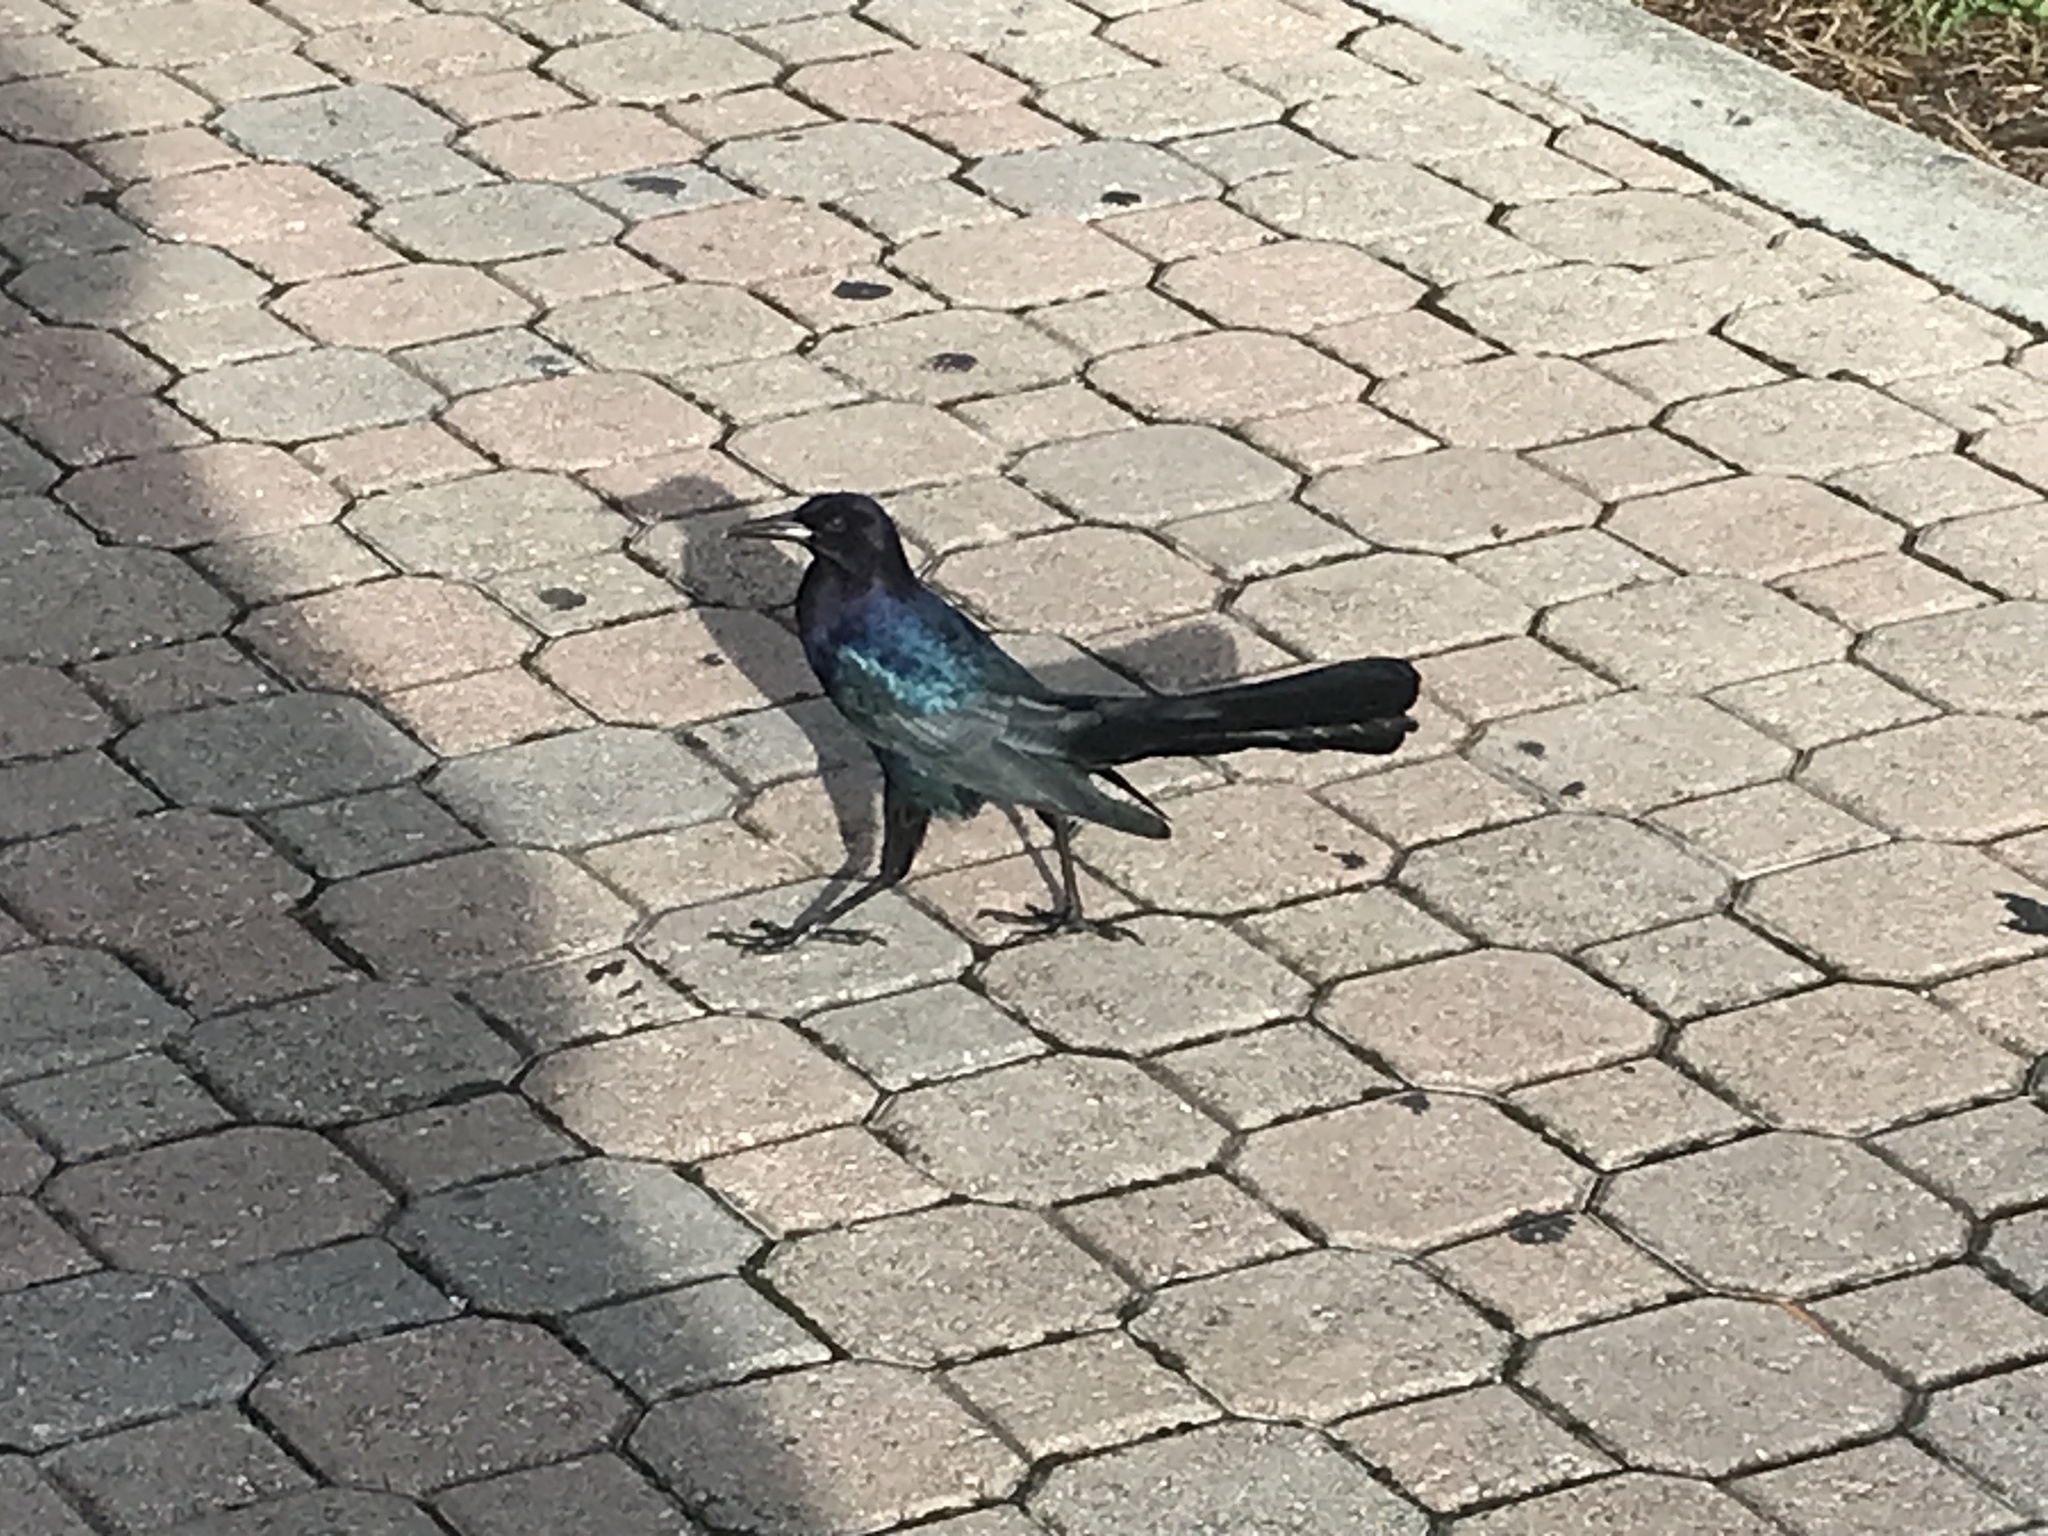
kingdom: Animalia
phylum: Chordata
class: Aves
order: Passeriformes
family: Icteridae
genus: Quiscalus
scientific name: Quiscalus major
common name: Boat-tailed grackle
